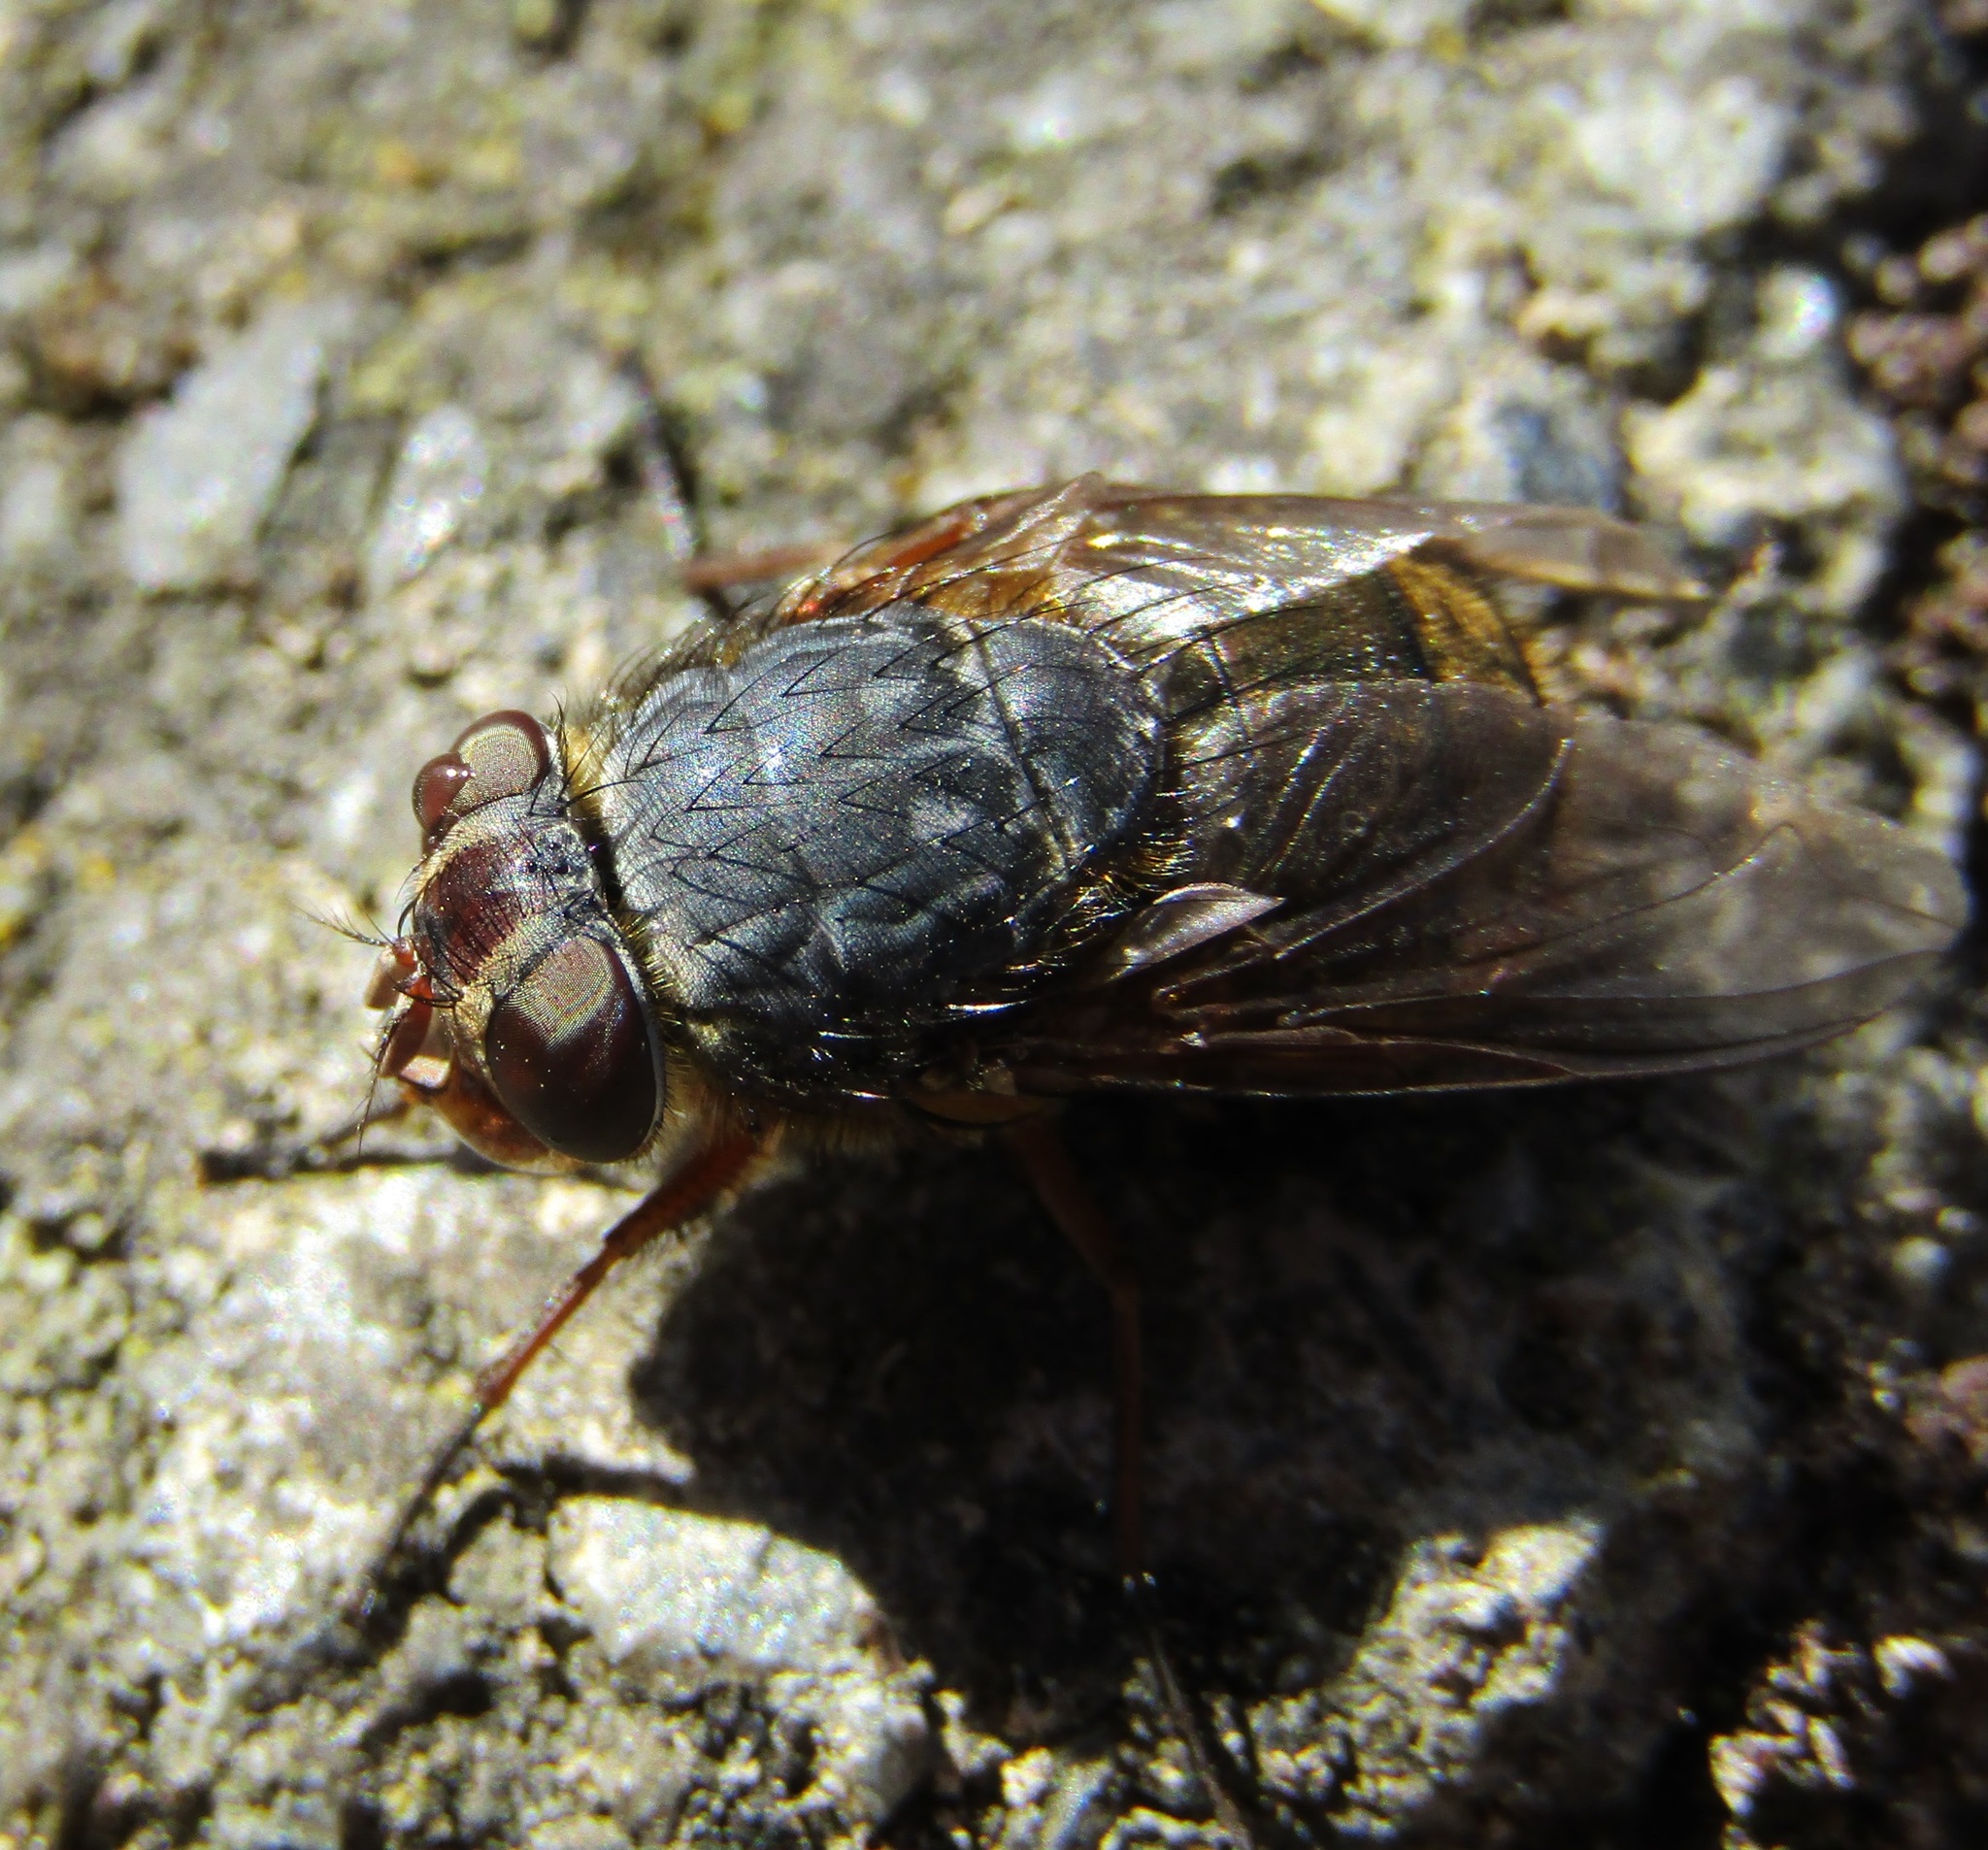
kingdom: Animalia
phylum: Arthropoda
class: Insecta
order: Diptera
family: Calliphoridae
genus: Calliphora
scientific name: Calliphora stygia
